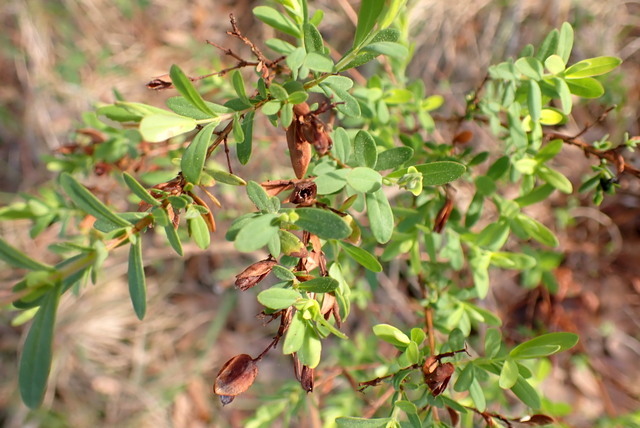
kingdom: Plantae
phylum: Tracheophyta
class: Magnoliopsida
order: Malpighiales
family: Hypericaceae
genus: Hypericum
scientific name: Hypericum hypericoides
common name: St. andrew's cross
